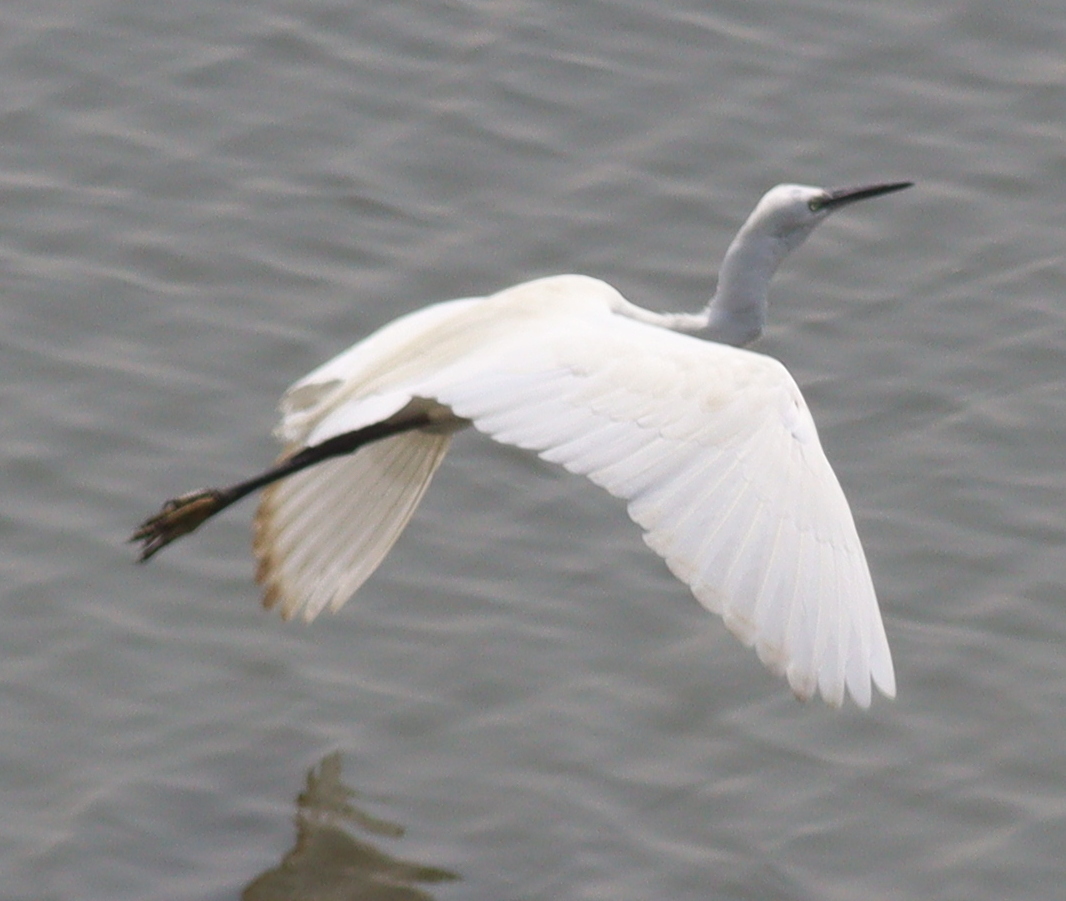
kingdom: Animalia
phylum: Chordata
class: Aves
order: Pelecaniformes
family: Ardeidae
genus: Egretta
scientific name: Egretta garzetta
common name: Little egret
